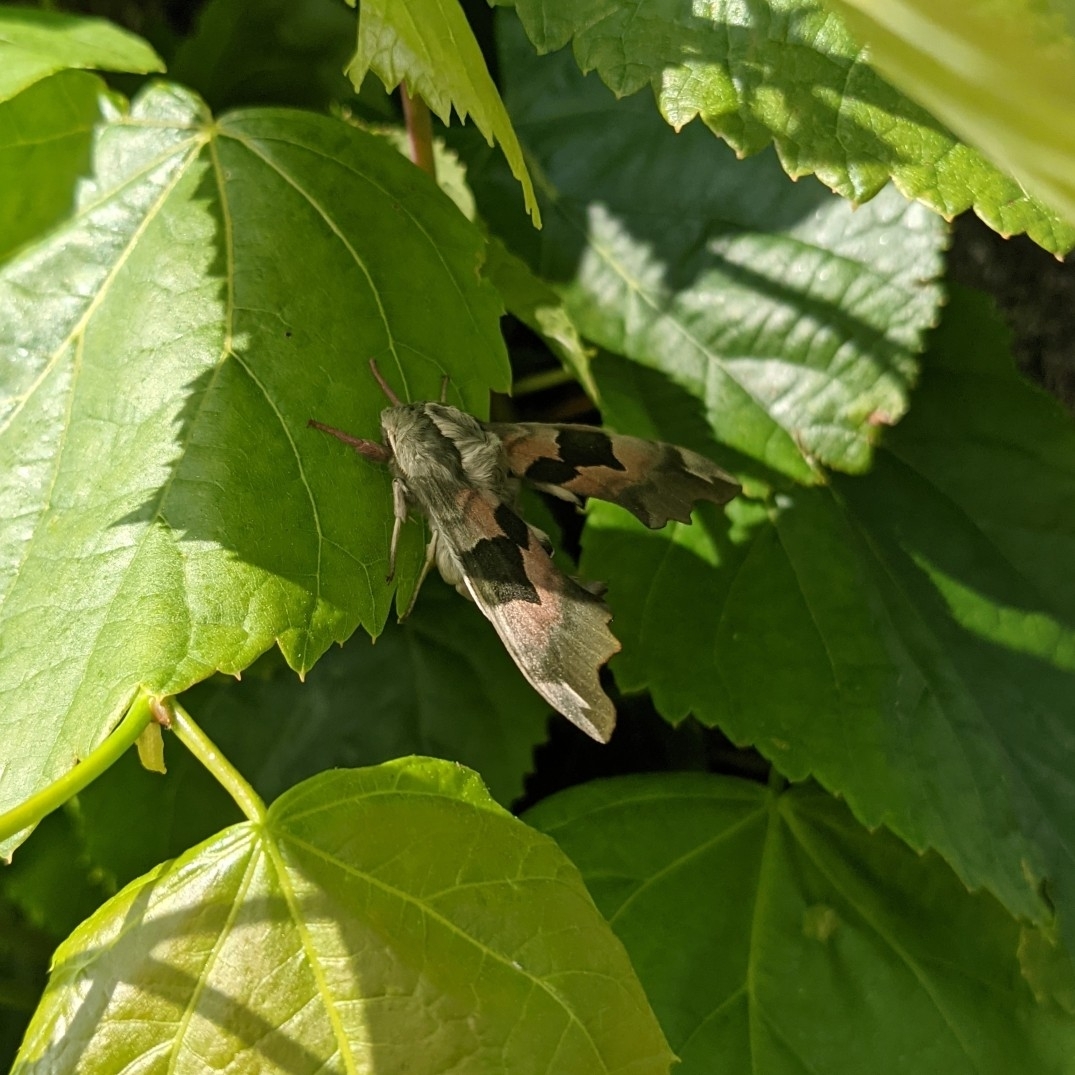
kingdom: Animalia
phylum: Arthropoda
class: Insecta
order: Lepidoptera
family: Sphingidae
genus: Mimas
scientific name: Mimas tiliae
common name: Lime hawk-moth
